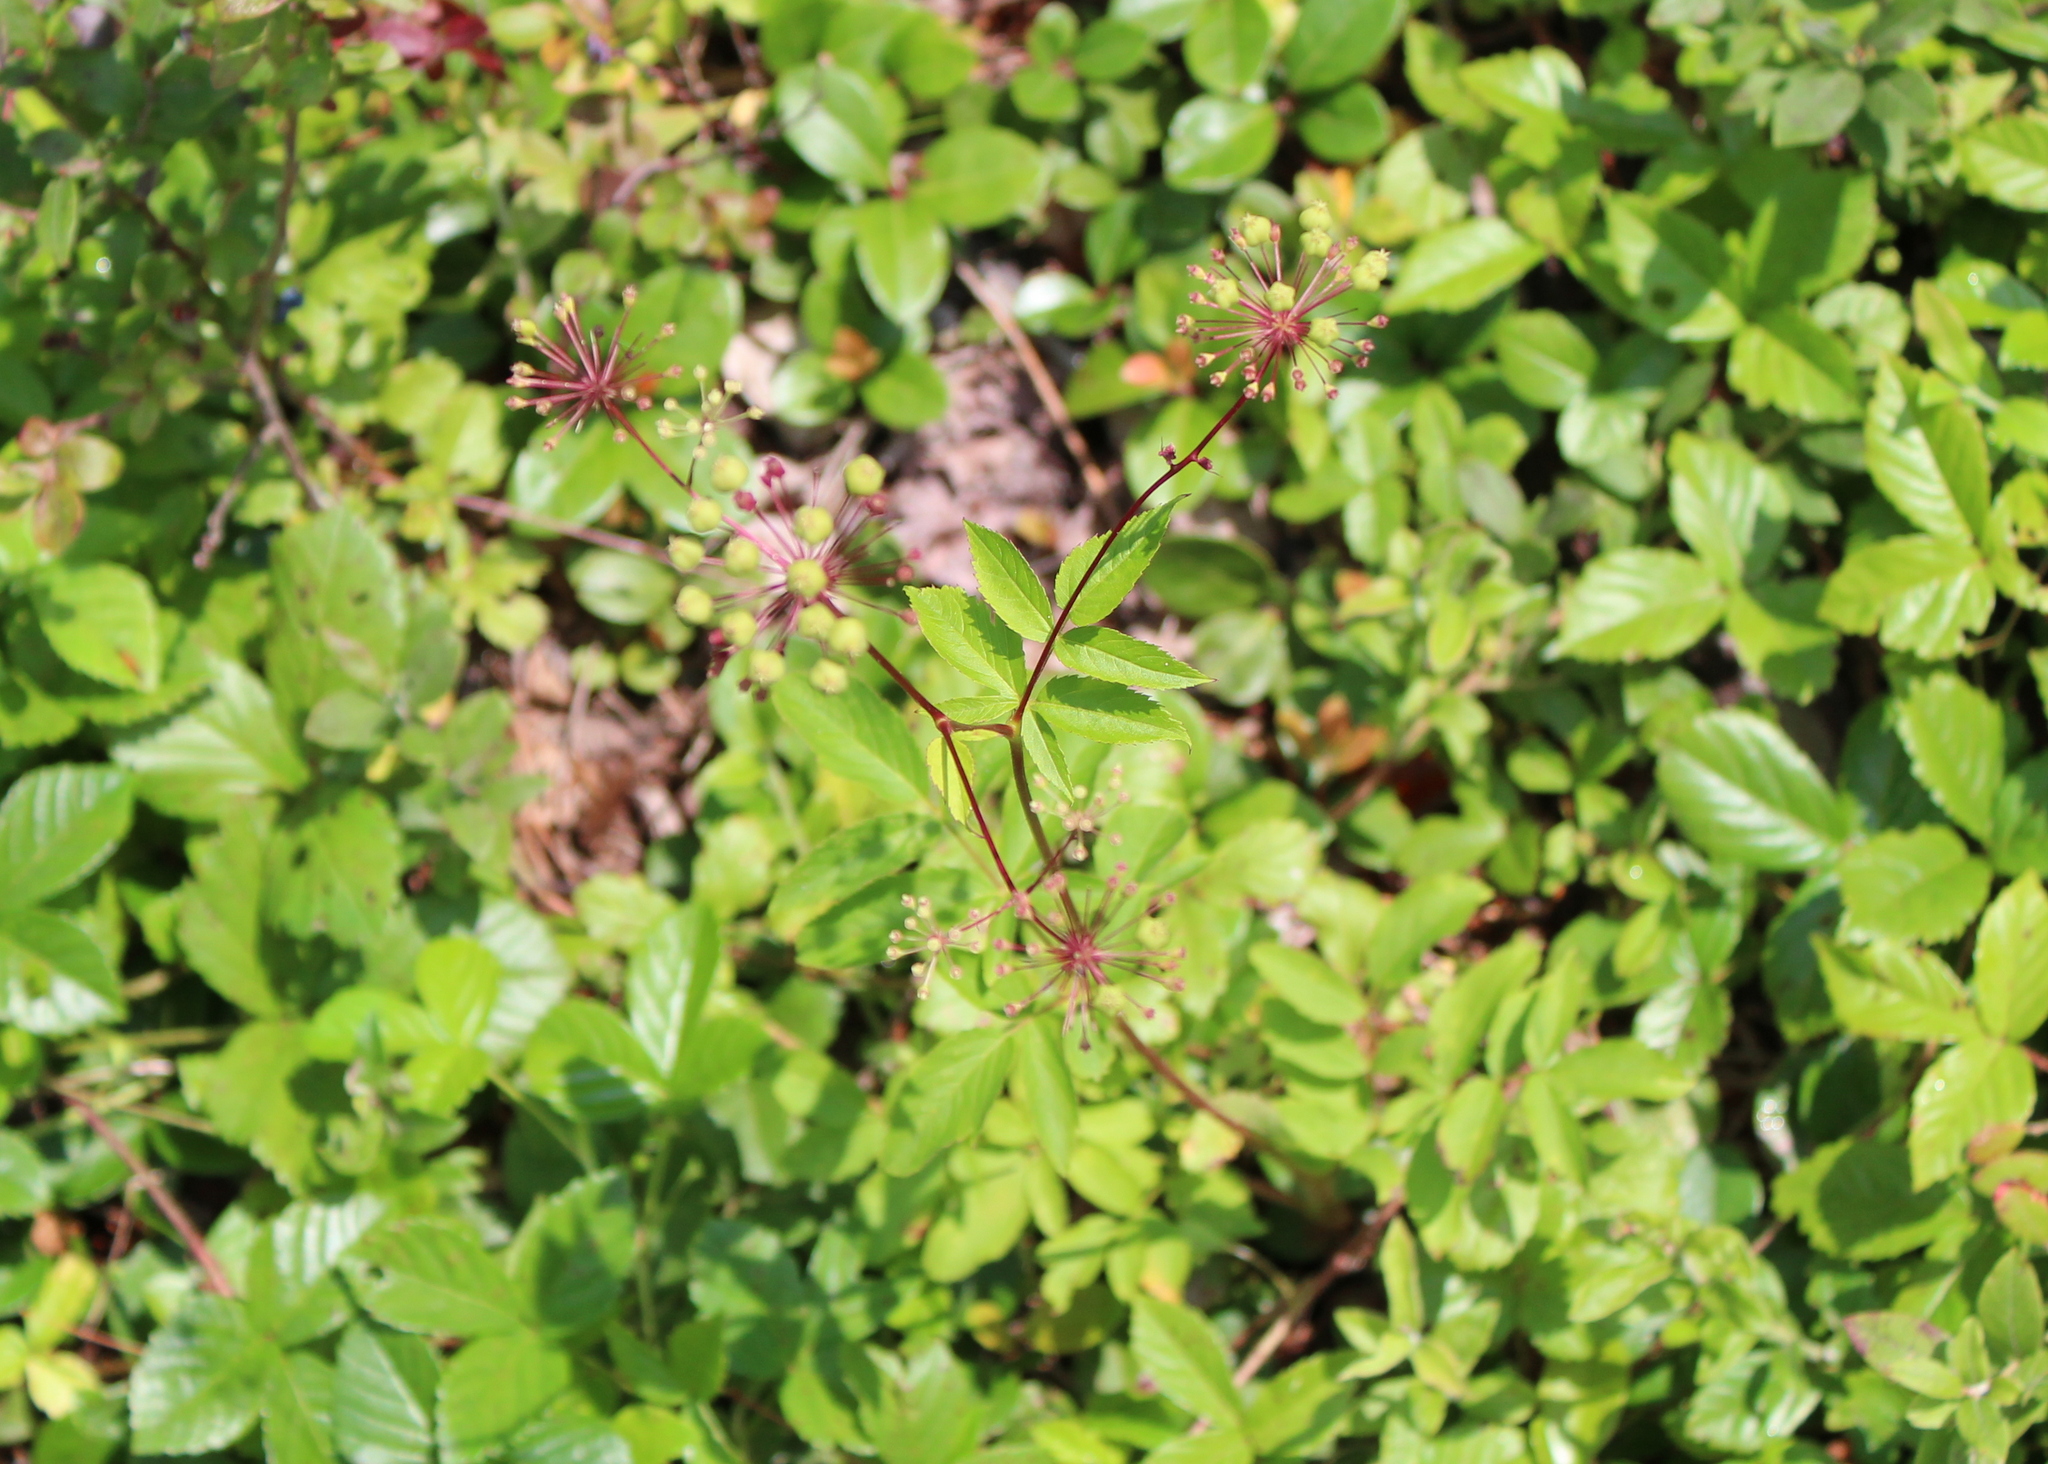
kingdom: Plantae
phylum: Tracheophyta
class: Magnoliopsida
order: Apiales
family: Araliaceae
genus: Aralia
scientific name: Aralia hispida
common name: Bristly sarsaparilla
